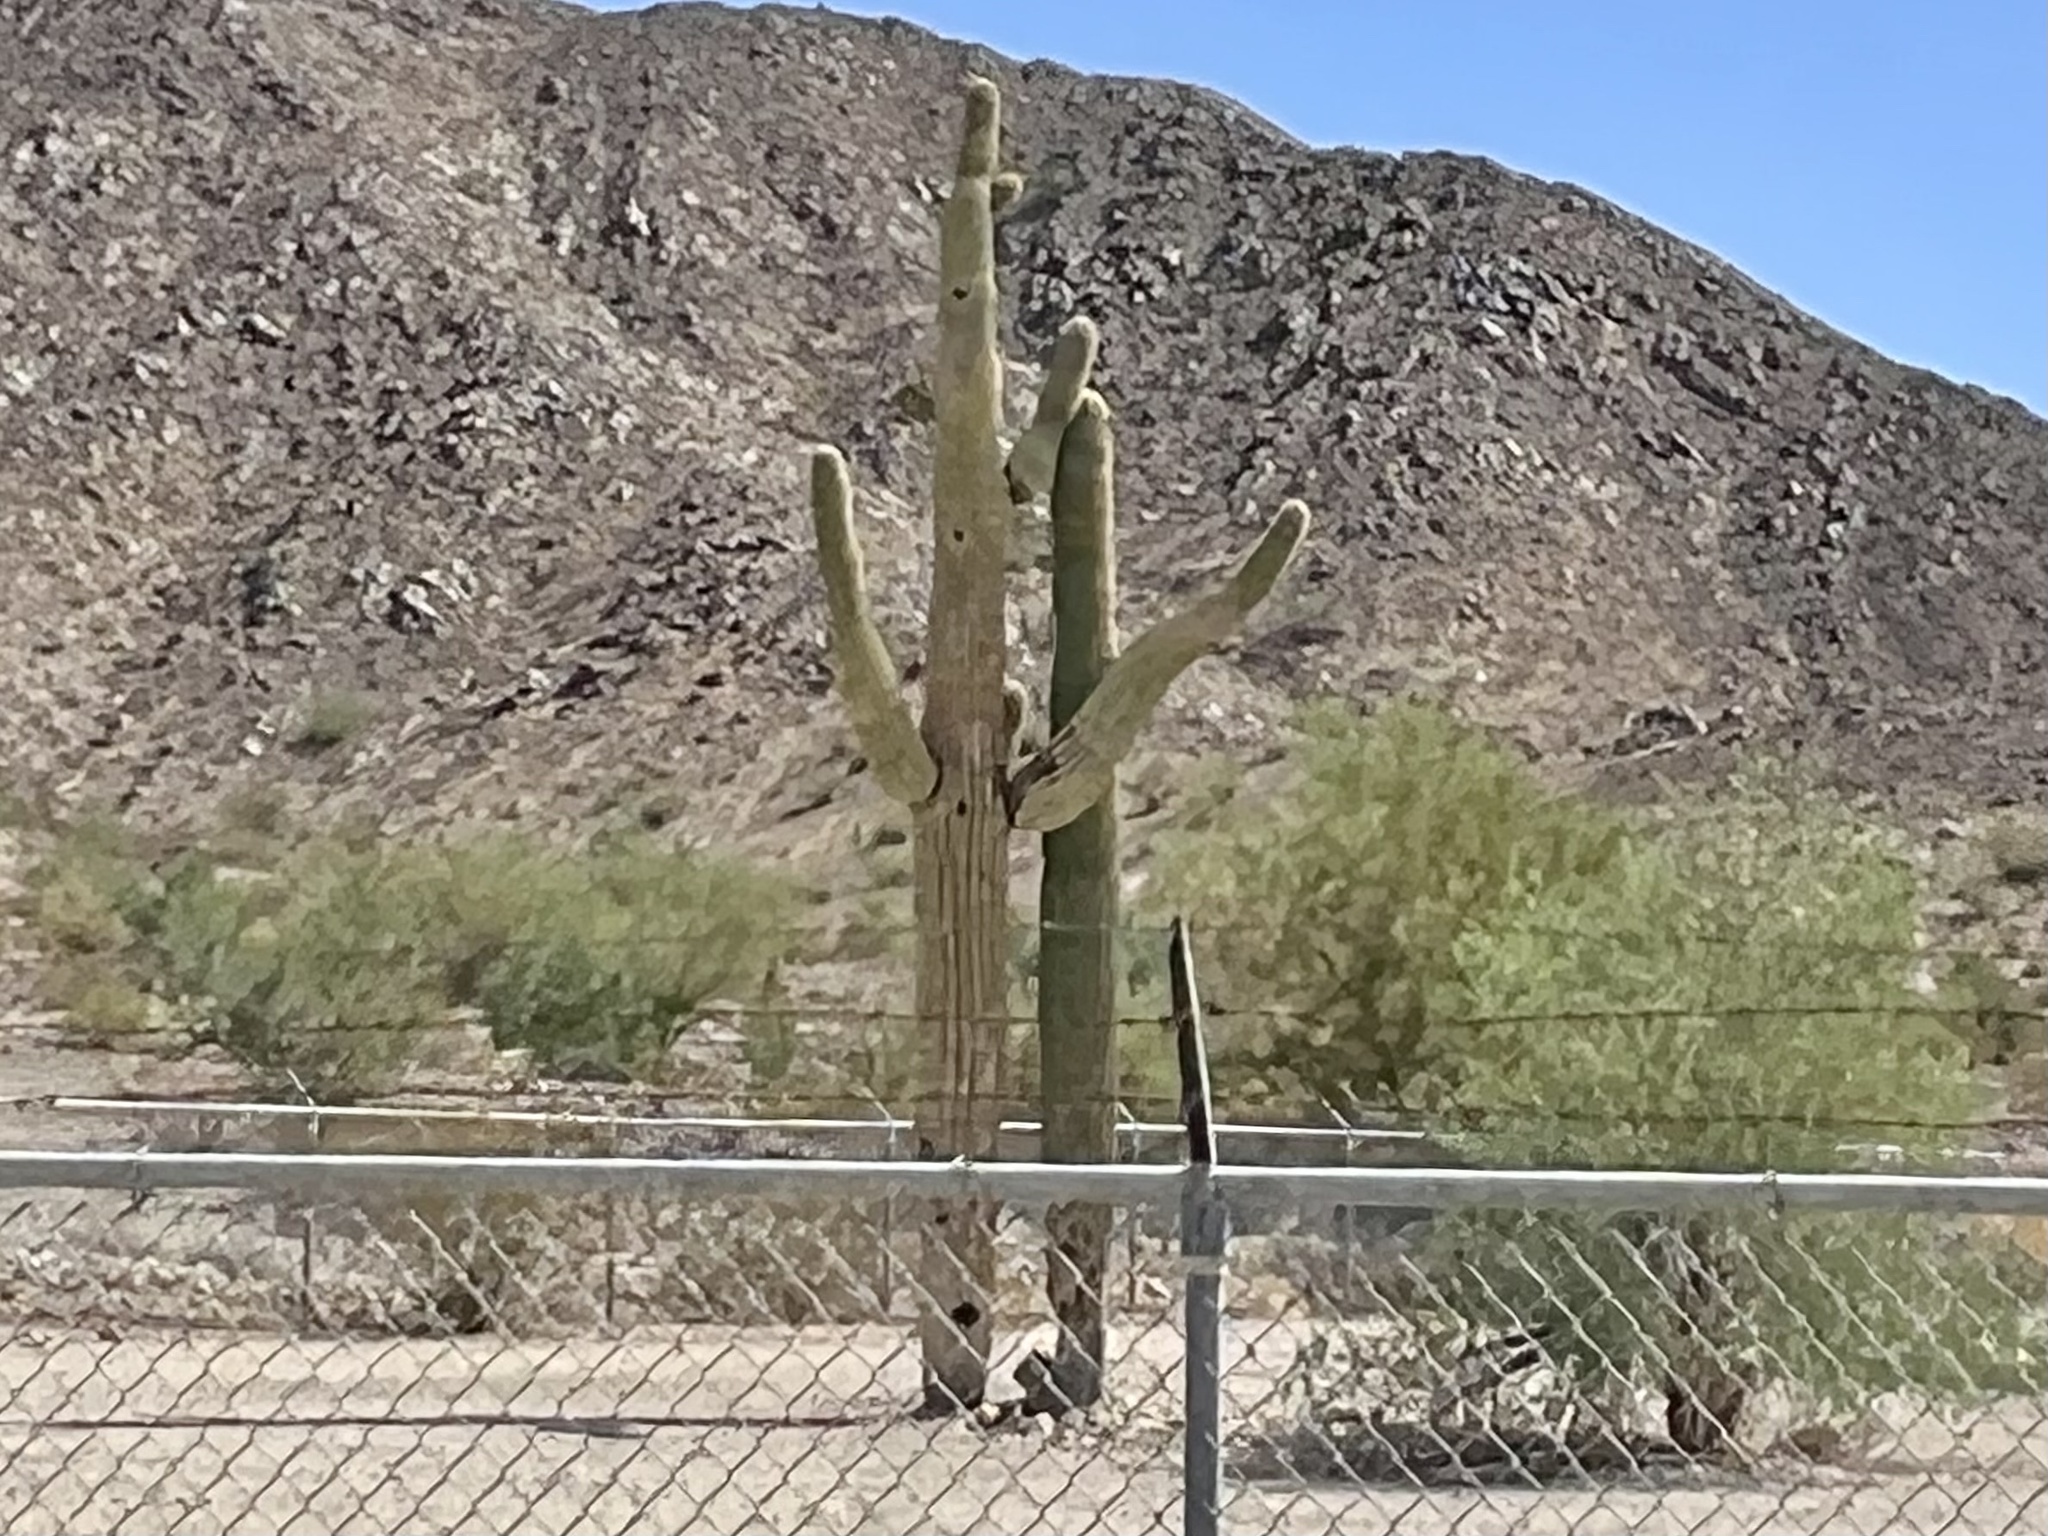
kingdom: Plantae
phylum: Tracheophyta
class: Magnoliopsida
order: Caryophyllales
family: Cactaceae
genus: Carnegiea
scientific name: Carnegiea gigantea
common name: Saguaro
